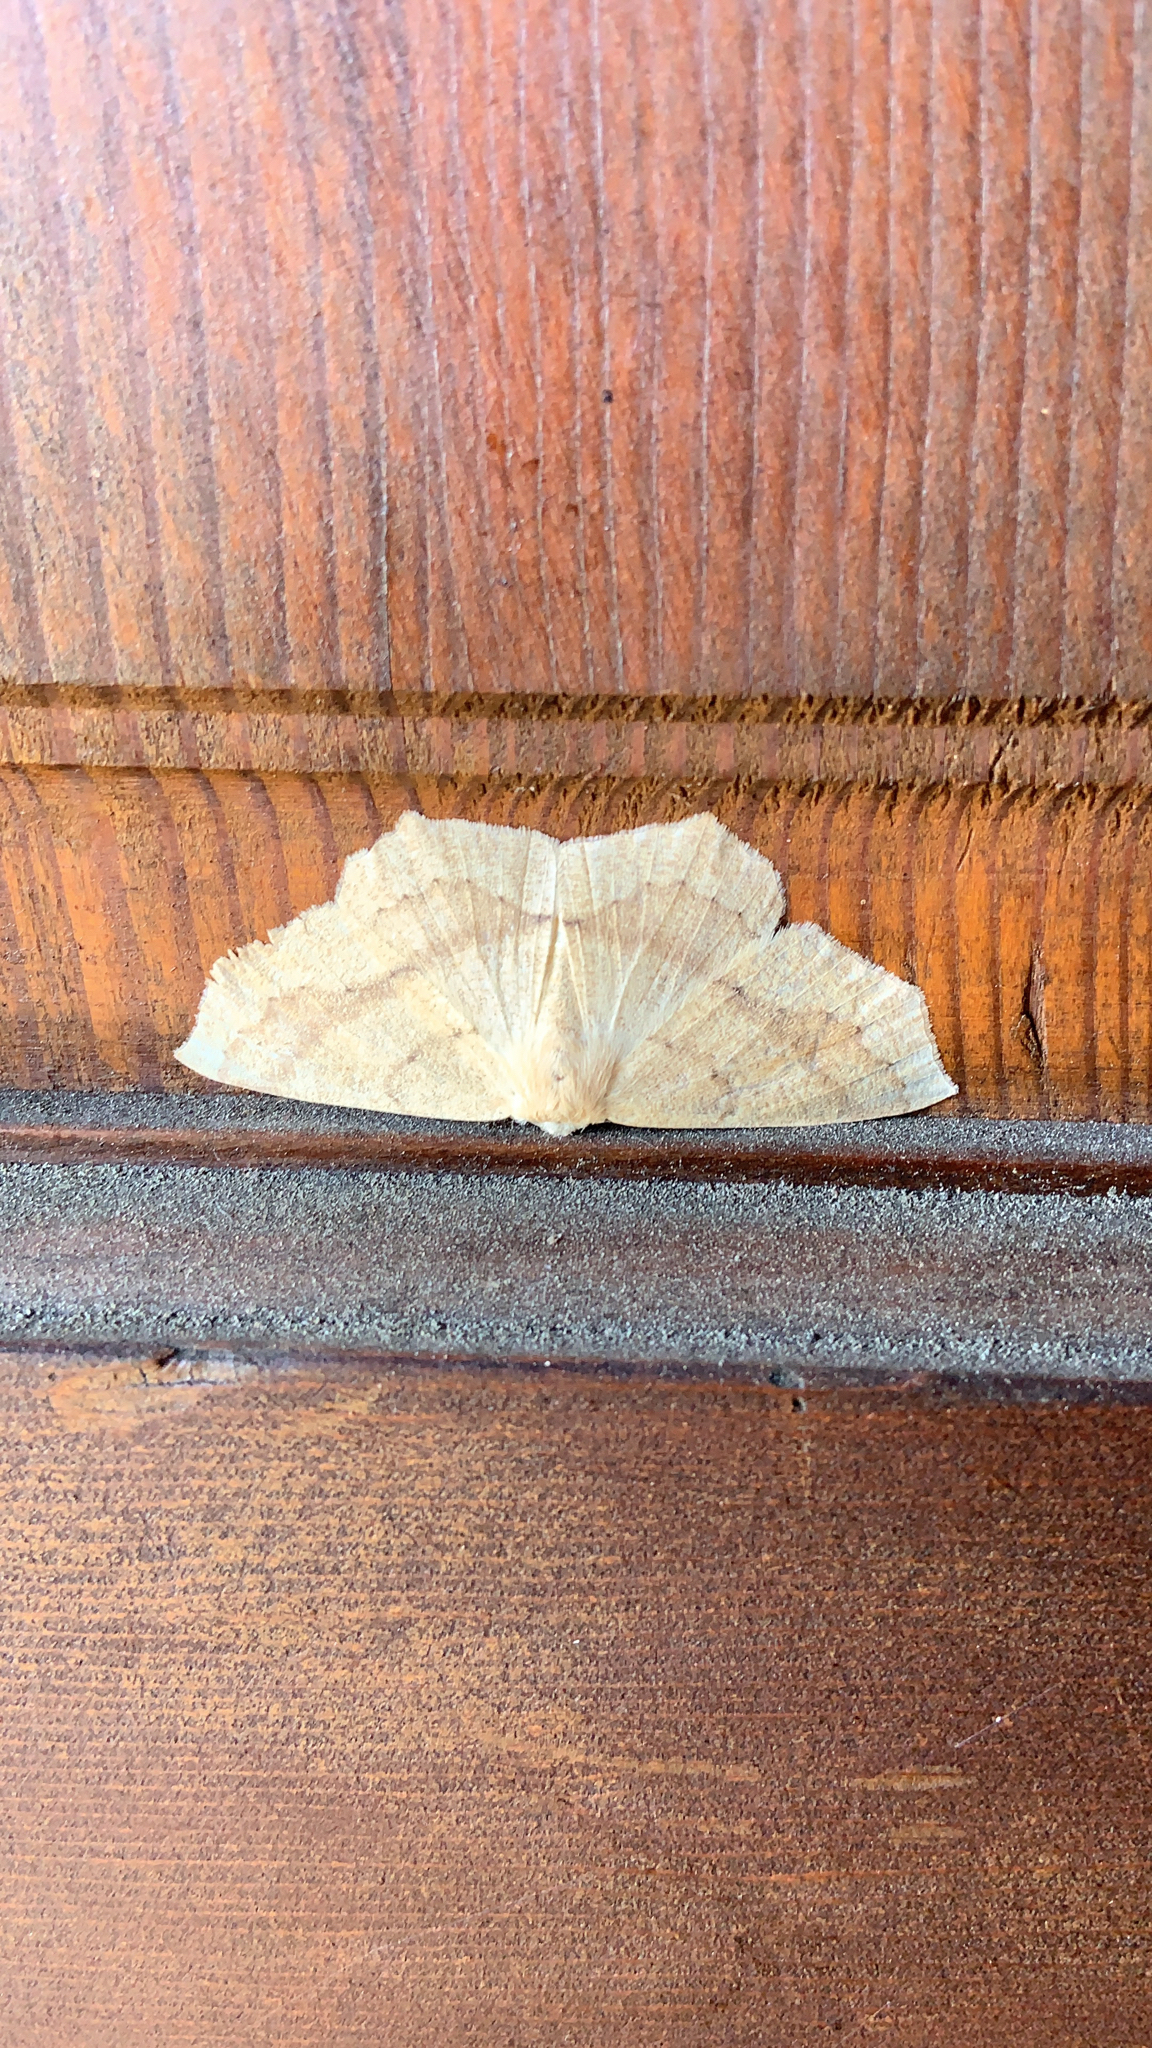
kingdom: Animalia
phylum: Arthropoda
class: Insecta
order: Lepidoptera
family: Geometridae
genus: Sabulodes
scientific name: Sabulodes aegrotata
